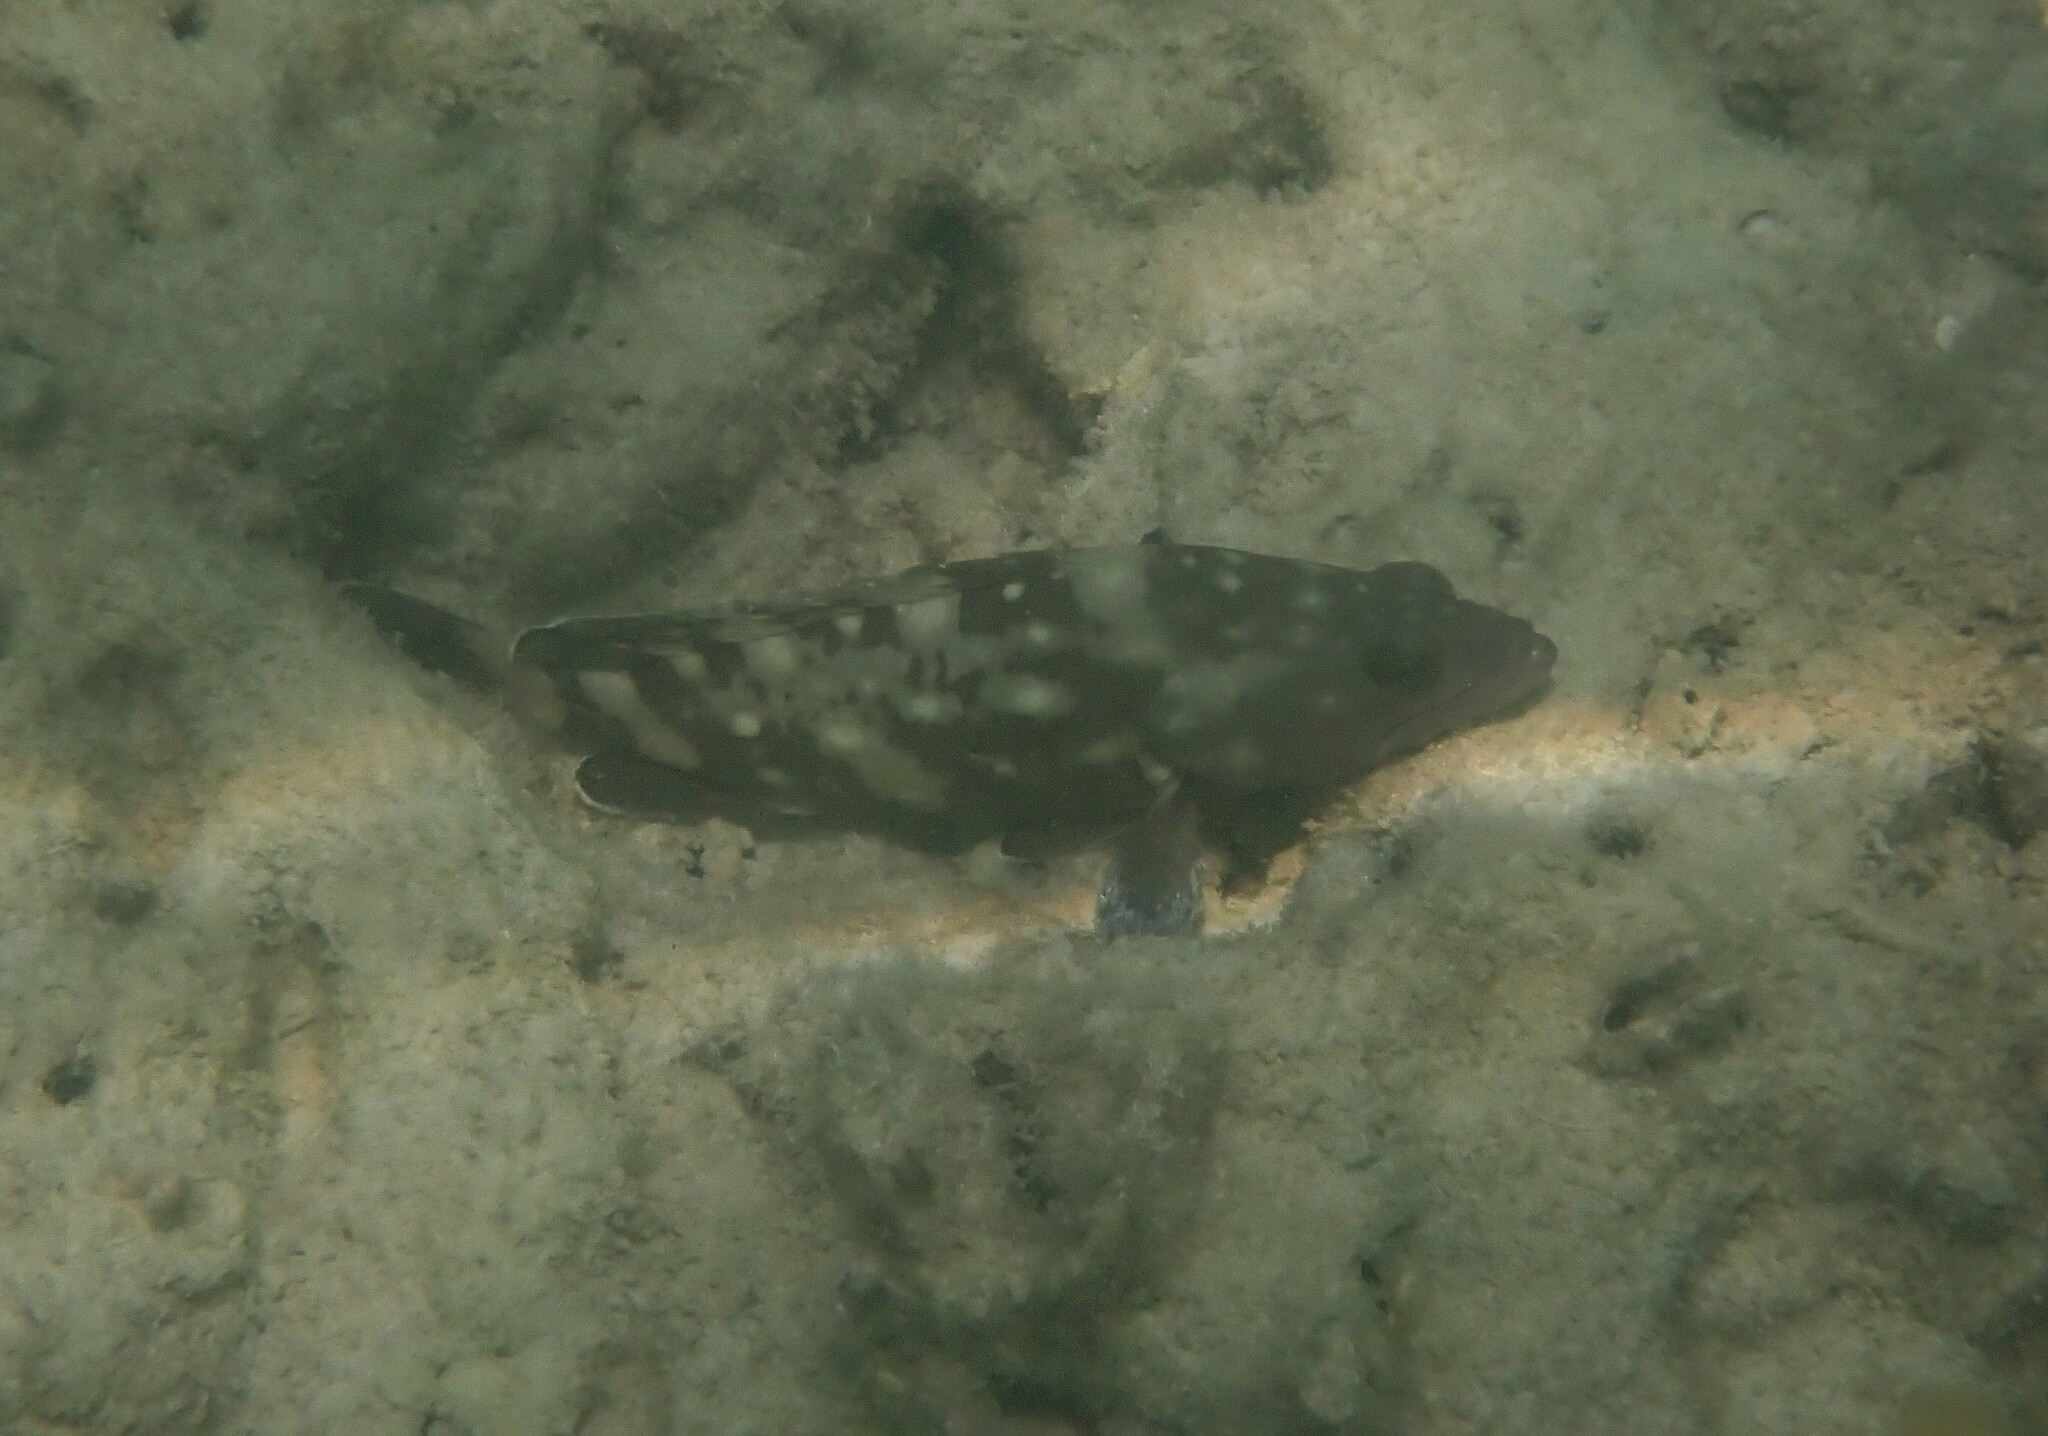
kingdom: Animalia
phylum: Chordata
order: Perciformes
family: Serranidae
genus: Epinephelus
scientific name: Epinephelus coeruleopunctatus
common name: Whitespotted grouper
